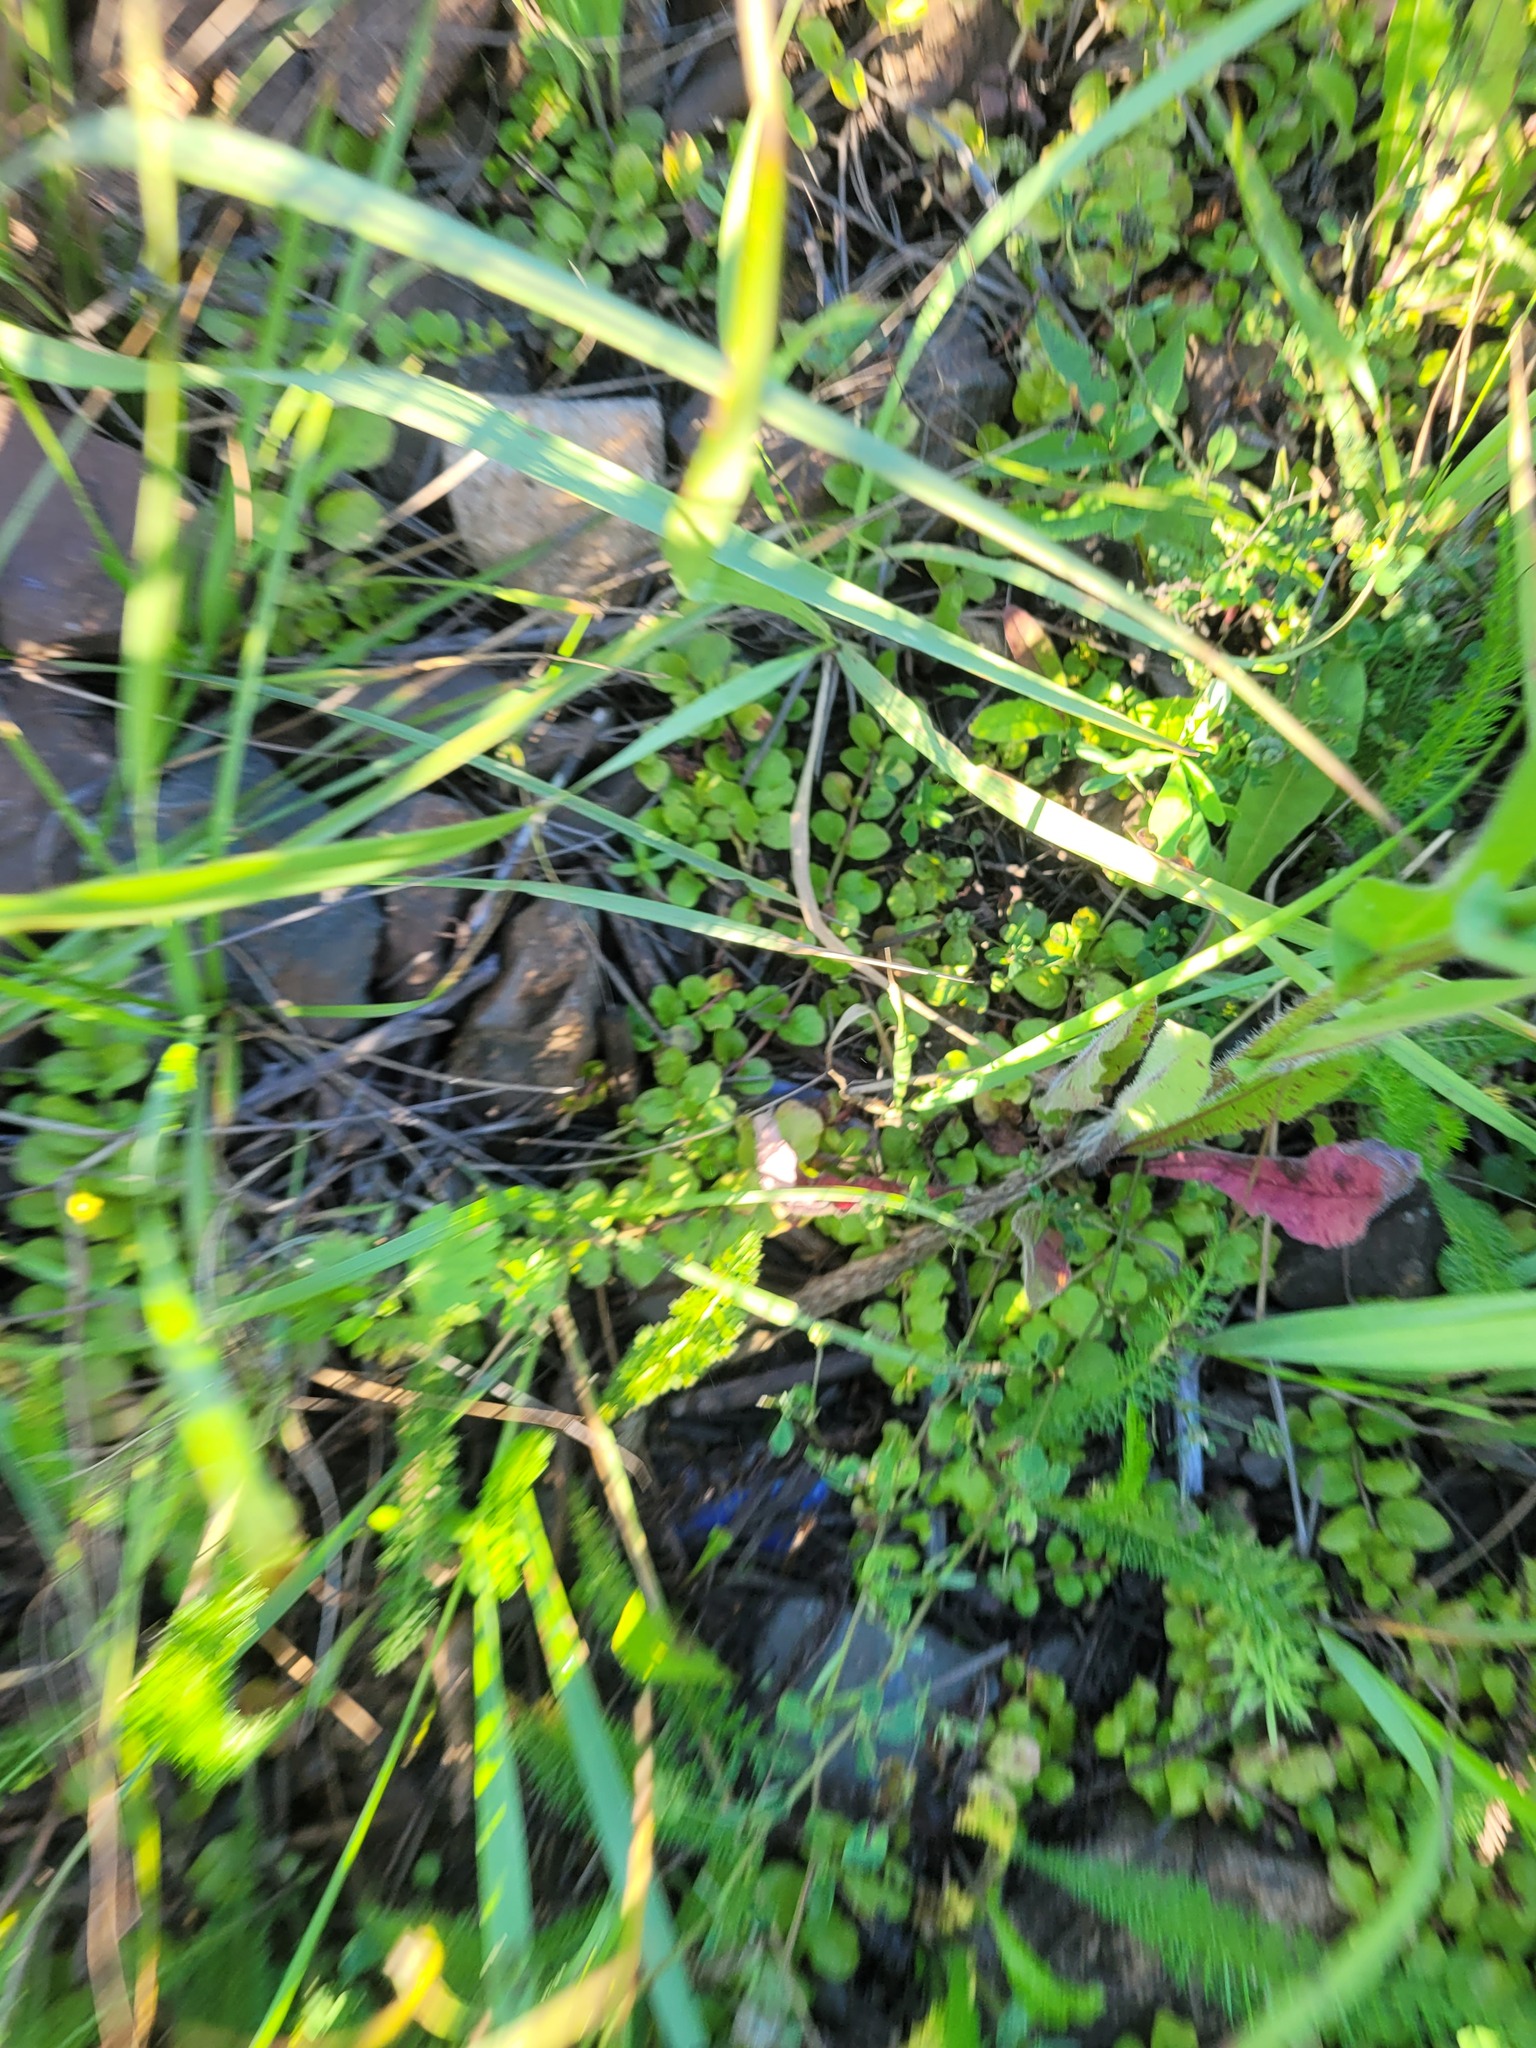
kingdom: Plantae
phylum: Tracheophyta
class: Magnoliopsida
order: Ericales
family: Primulaceae
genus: Lysimachia
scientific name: Lysimachia nummularia
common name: Moneywort
